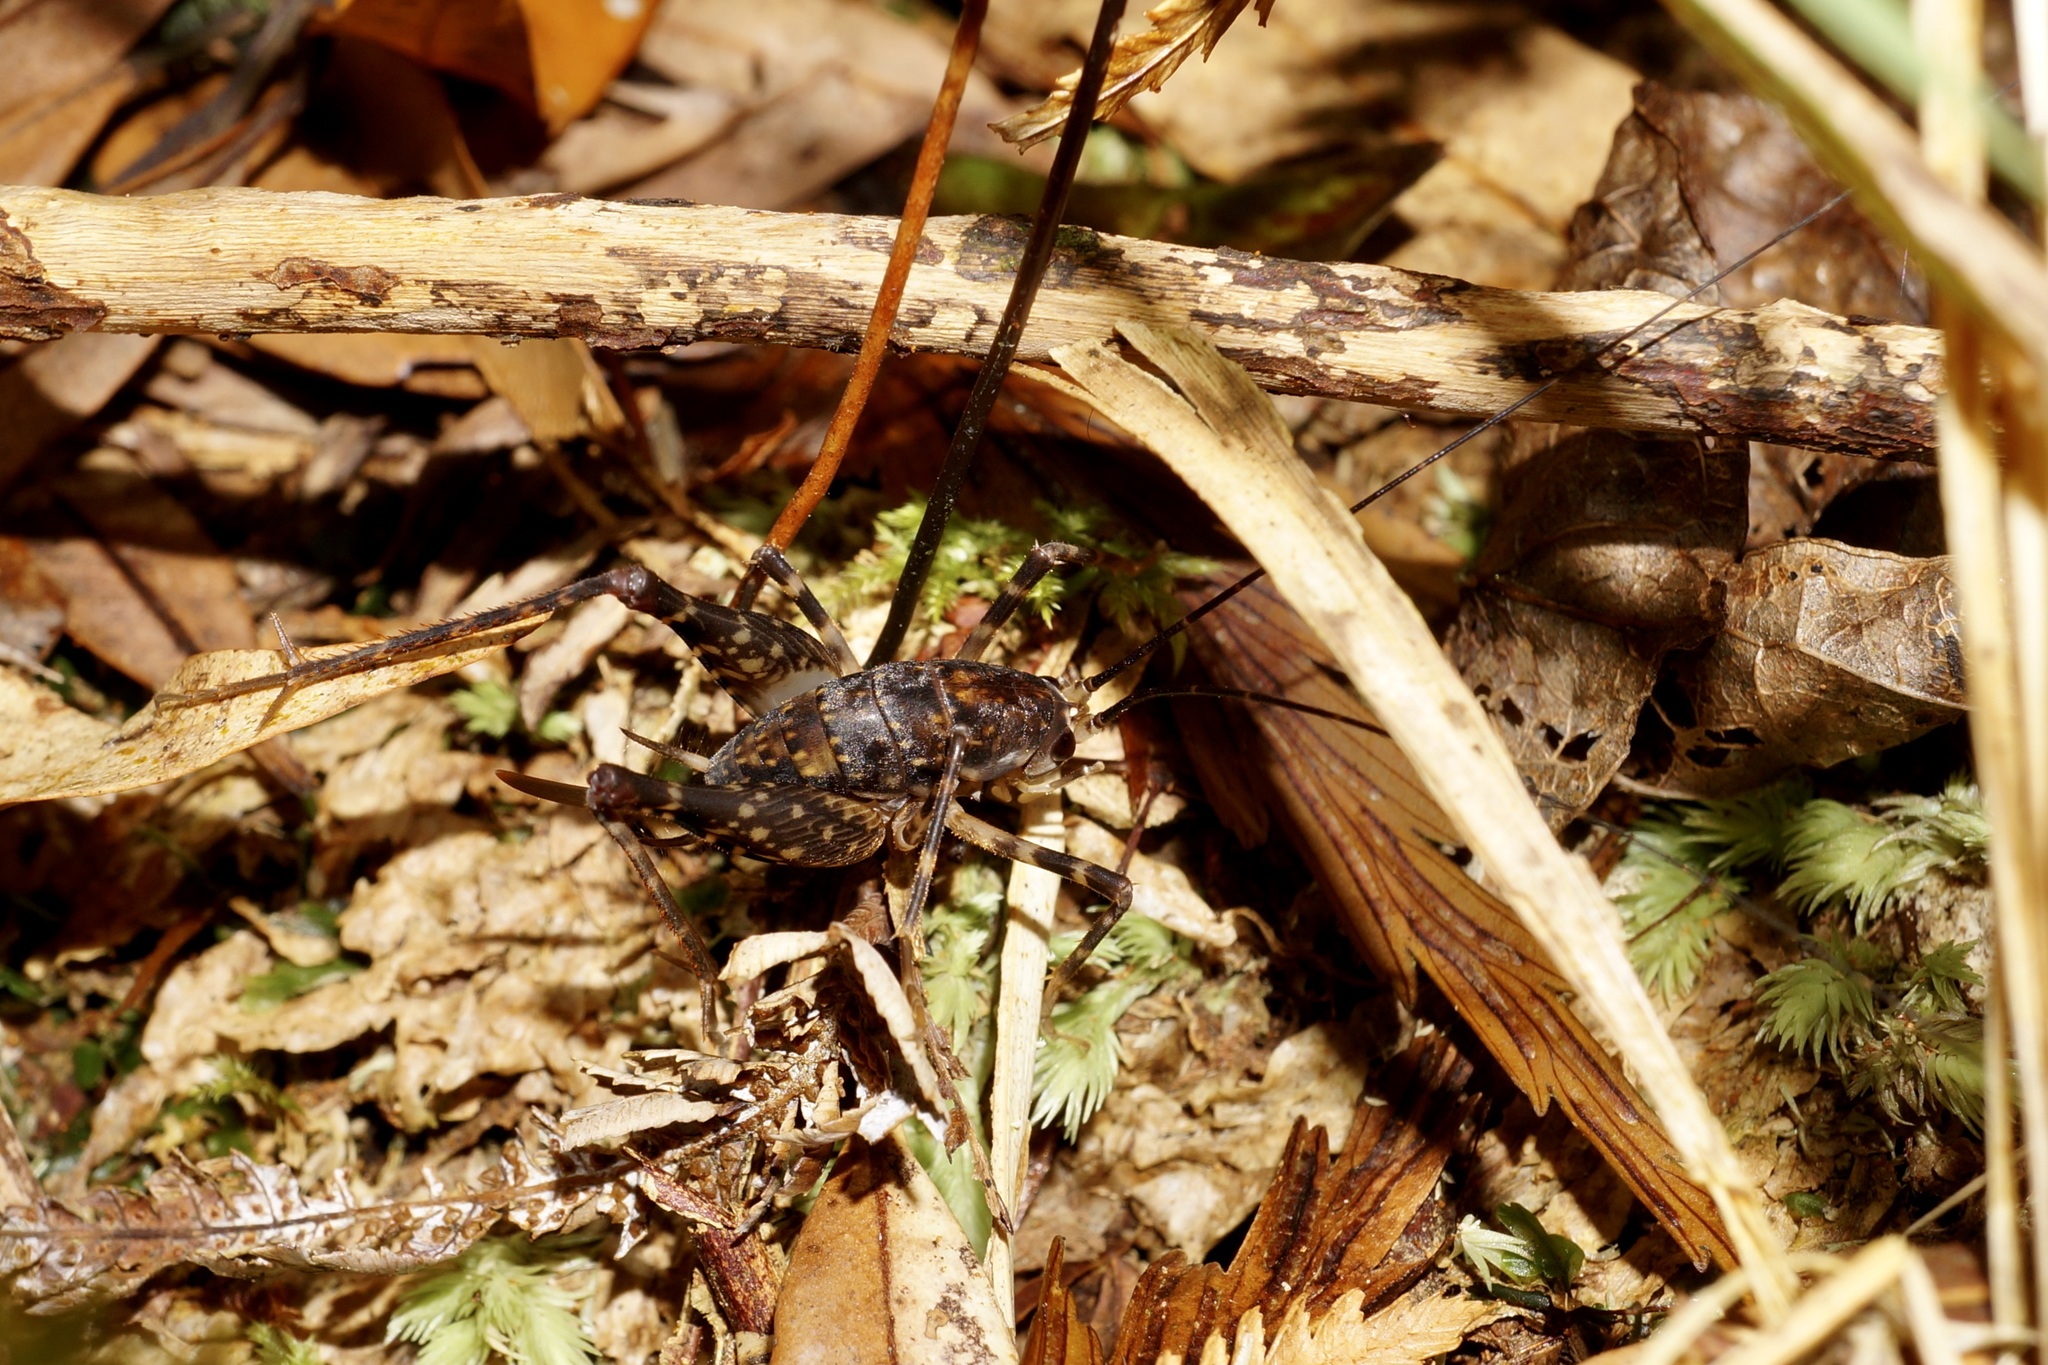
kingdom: Animalia
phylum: Arthropoda
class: Insecta
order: Orthoptera
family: Rhaphidophoridae
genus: Miotopus
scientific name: Miotopus diversus
